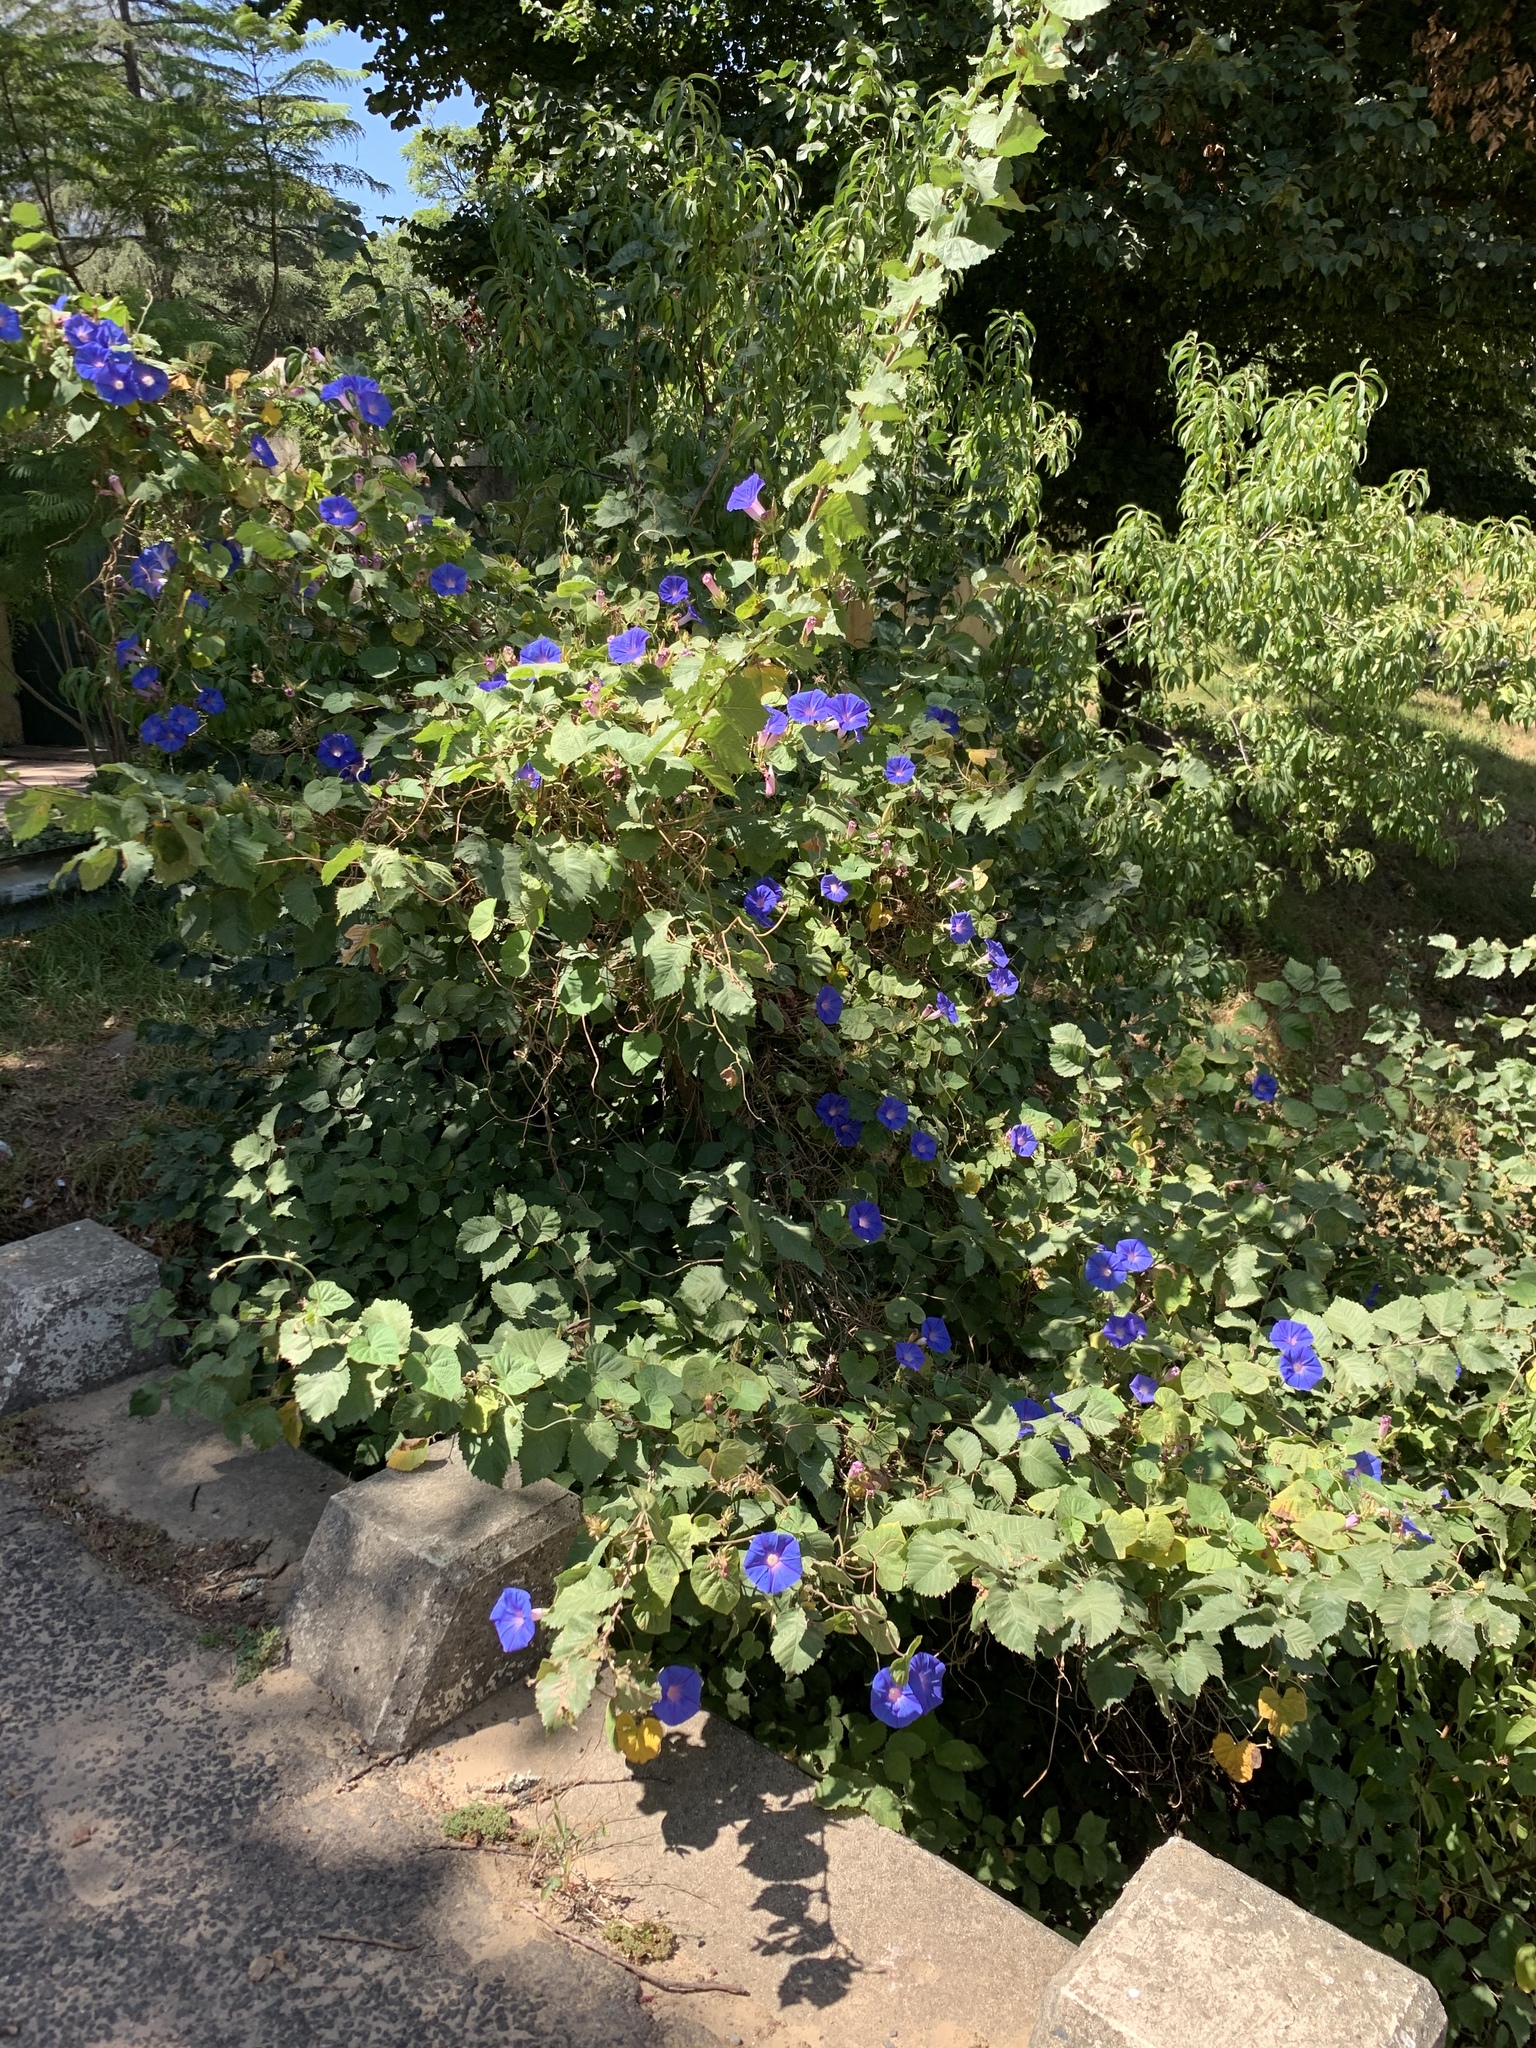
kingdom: Plantae
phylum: Tracheophyta
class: Magnoliopsida
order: Solanales
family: Convolvulaceae
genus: Ipomoea
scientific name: Ipomoea indica
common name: Blue dawnflower
